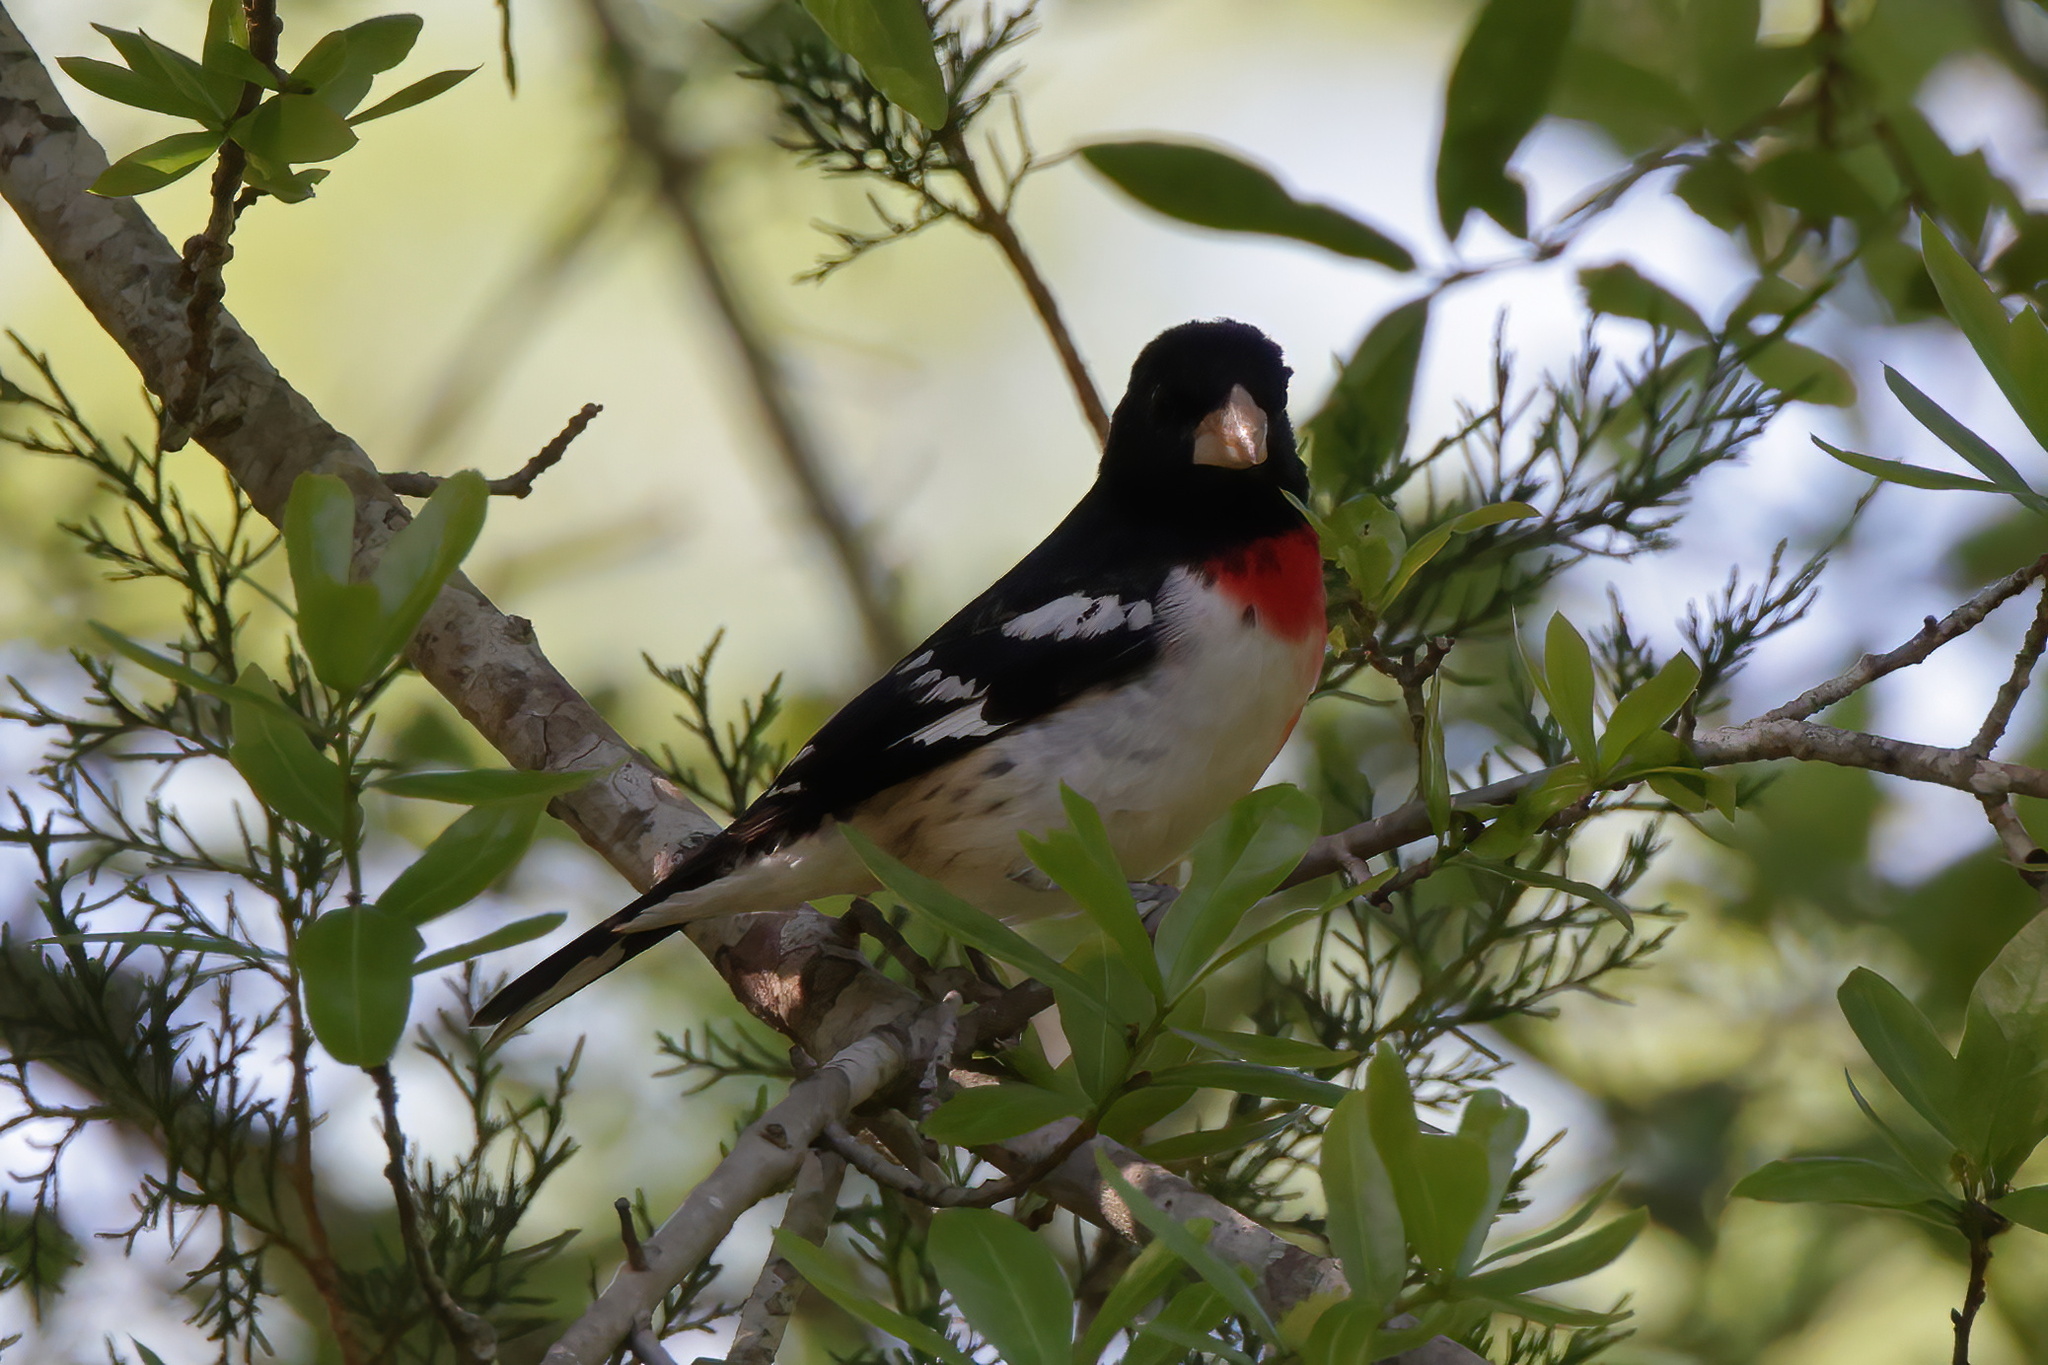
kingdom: Animalia
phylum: Chordata
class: Aves
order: Passeriformes
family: Cardinalidae
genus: Pheucticus
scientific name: Pheucticus ludovicianus
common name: Rose-breasted grosbeak
